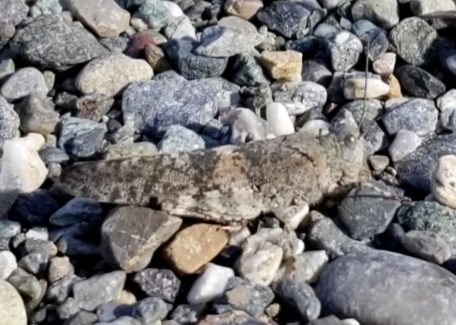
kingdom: Animalia
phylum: Arthropoda
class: Insecta
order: Orthoptera
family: Acrididae
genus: Dissosteira
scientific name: Dissosteira carolina
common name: Carolina grasshopper
